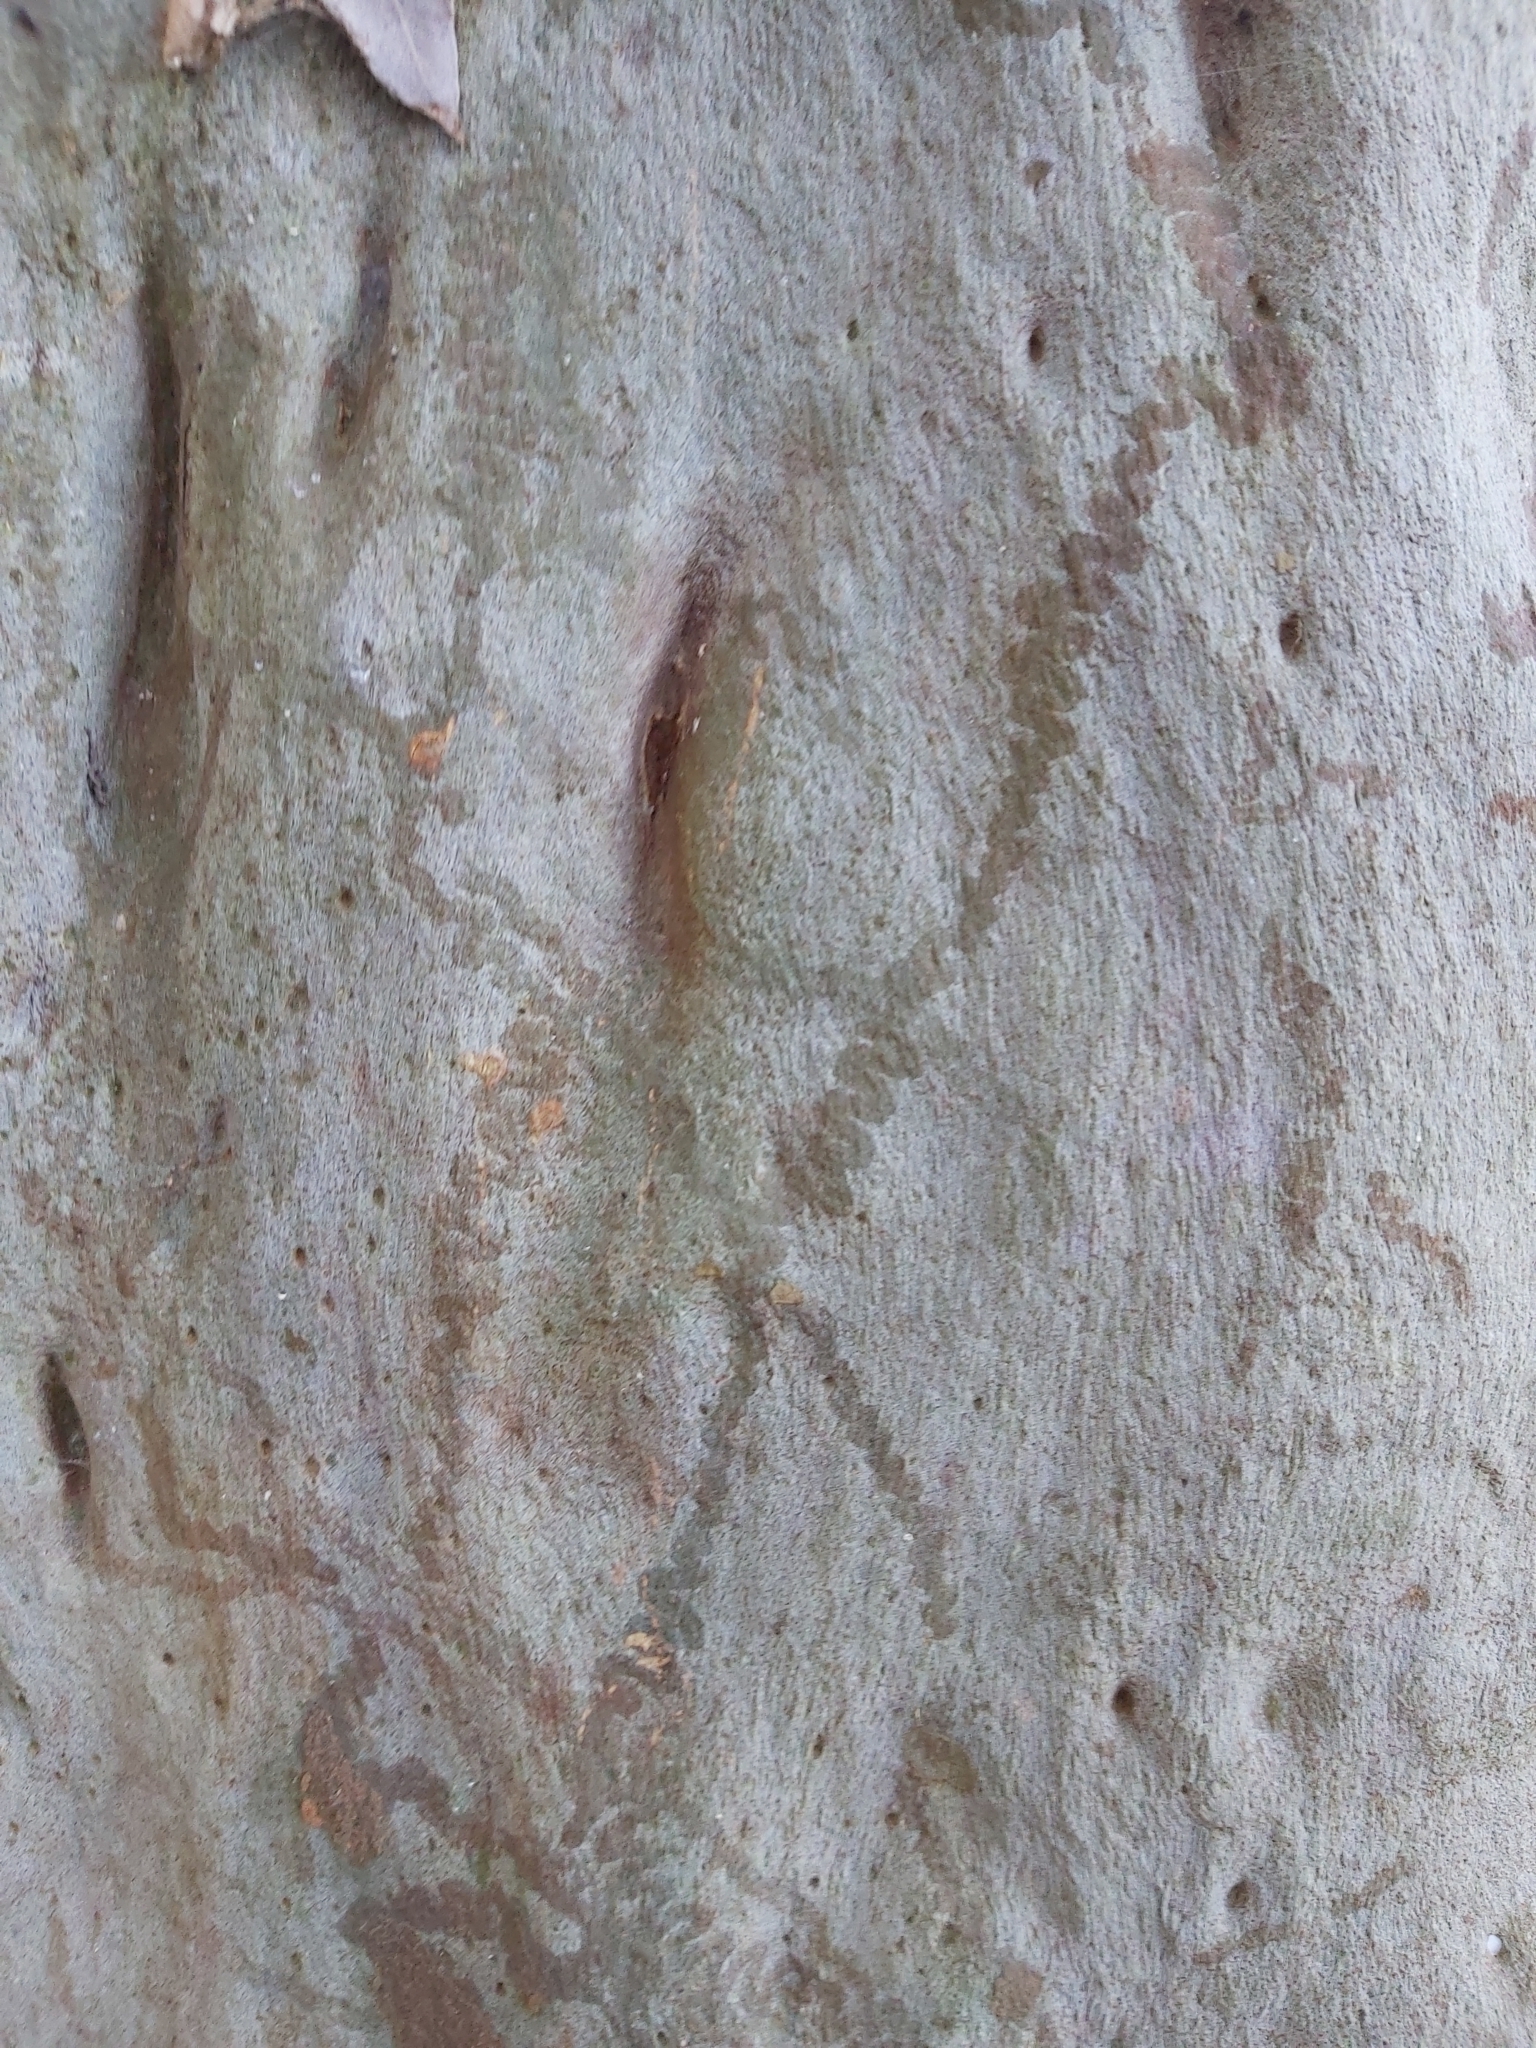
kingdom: Animalia
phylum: Mollusca
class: Gastropoda
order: Stylommatophora
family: Athoracophoridae
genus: Triboniophorus
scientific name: Triboniophorus graeffei
